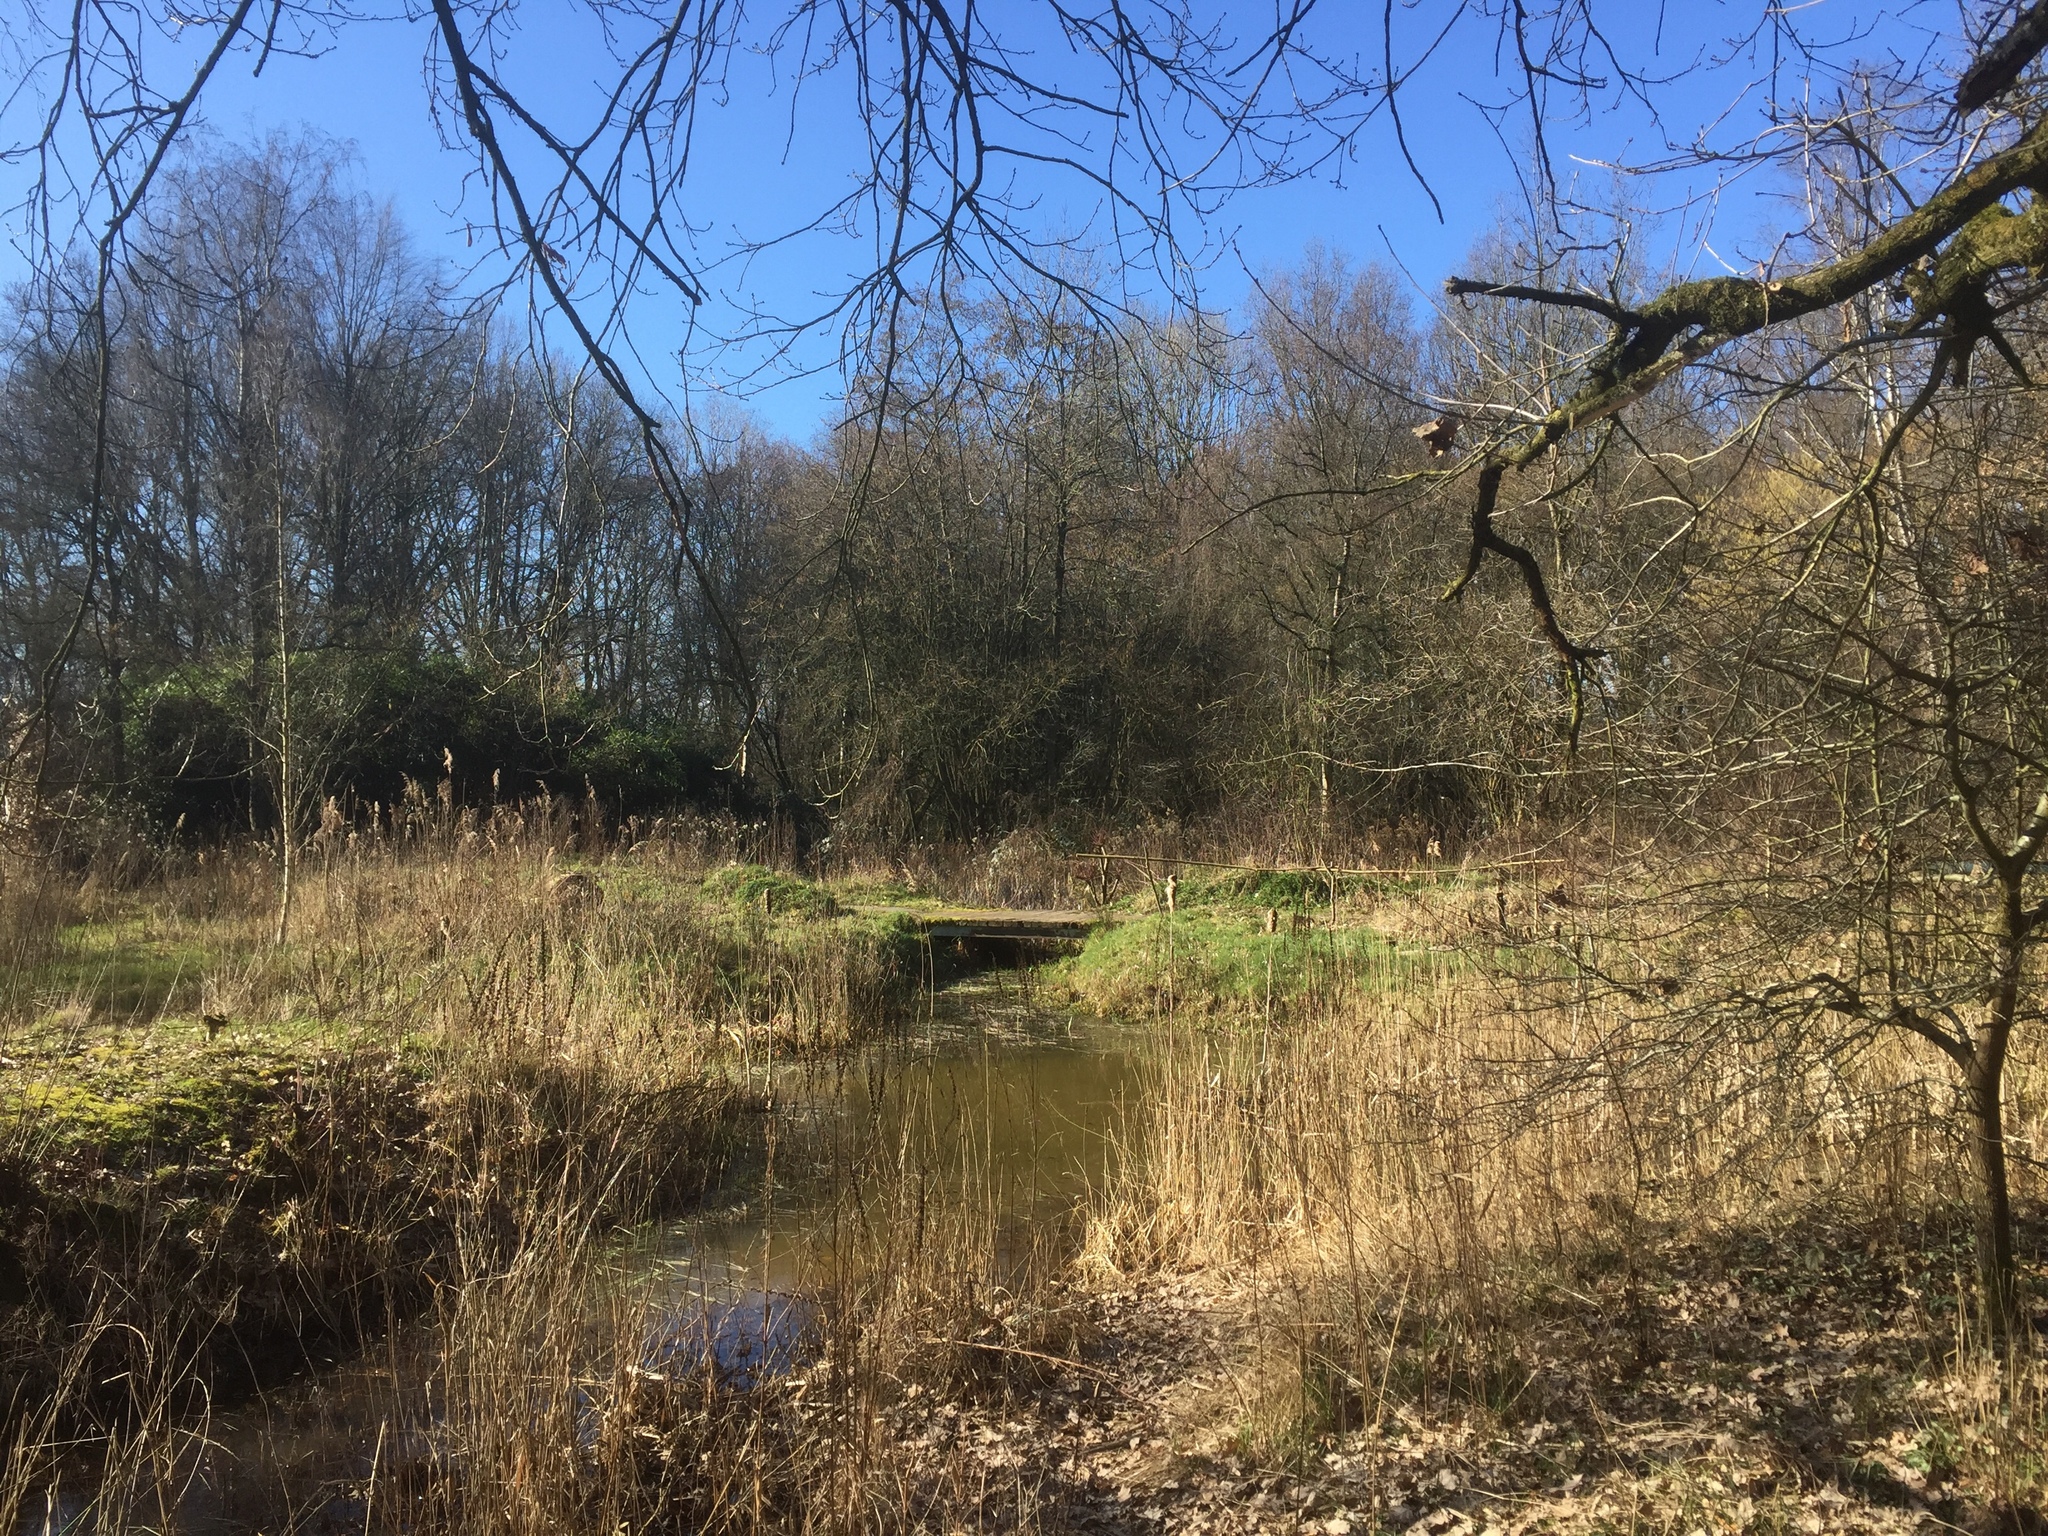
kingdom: Plantae
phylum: Tracheophyta
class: Liliopsida
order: Poales
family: Poaceae
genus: Phragmites
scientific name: Phragmites australis
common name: Common reed
